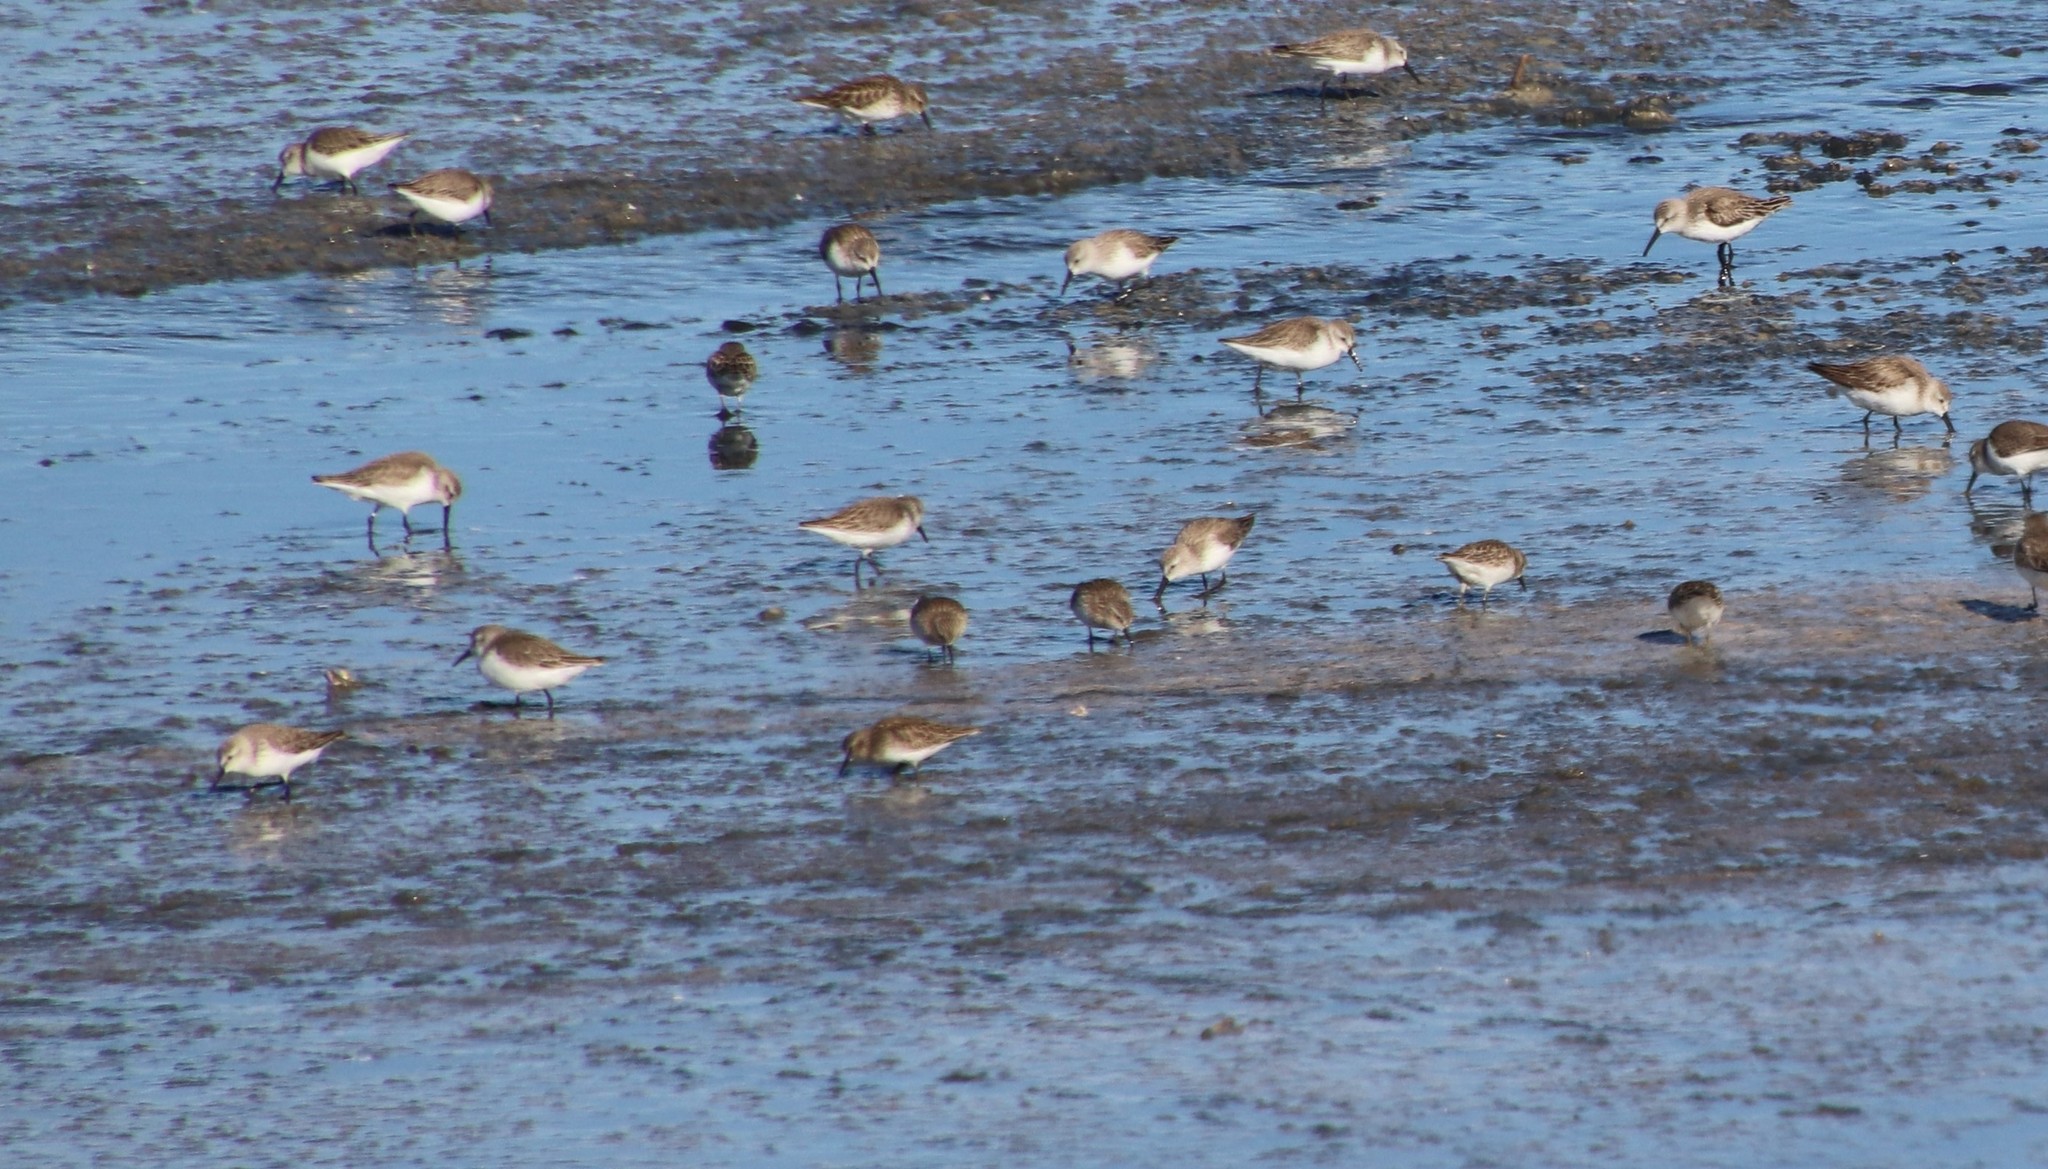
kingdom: Animalia
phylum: Chordata
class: Aves
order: Charadriiformes
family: Scolopacidae
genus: Calidris
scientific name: Calidris minutilla
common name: Least sandpiper
